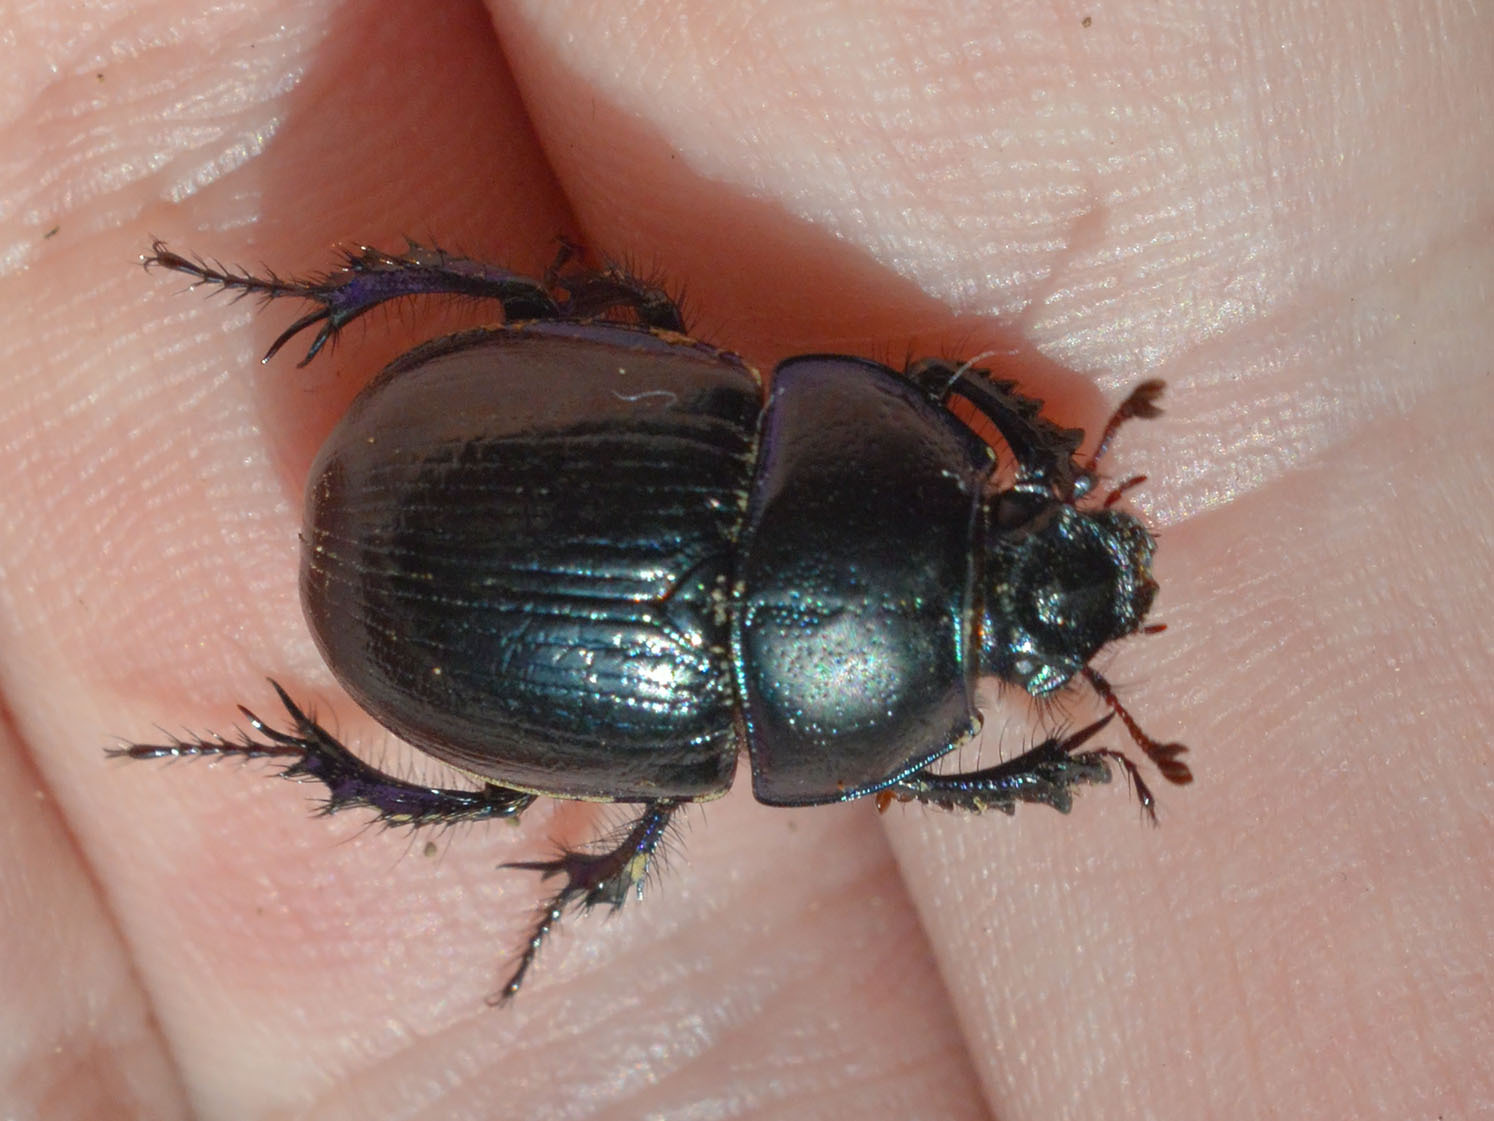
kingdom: Animalia
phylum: Arthropoda
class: Insecta
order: Coleoptera
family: Geotrupidae
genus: Anoplotrupes
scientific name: Anoplotrupes stercorosus
